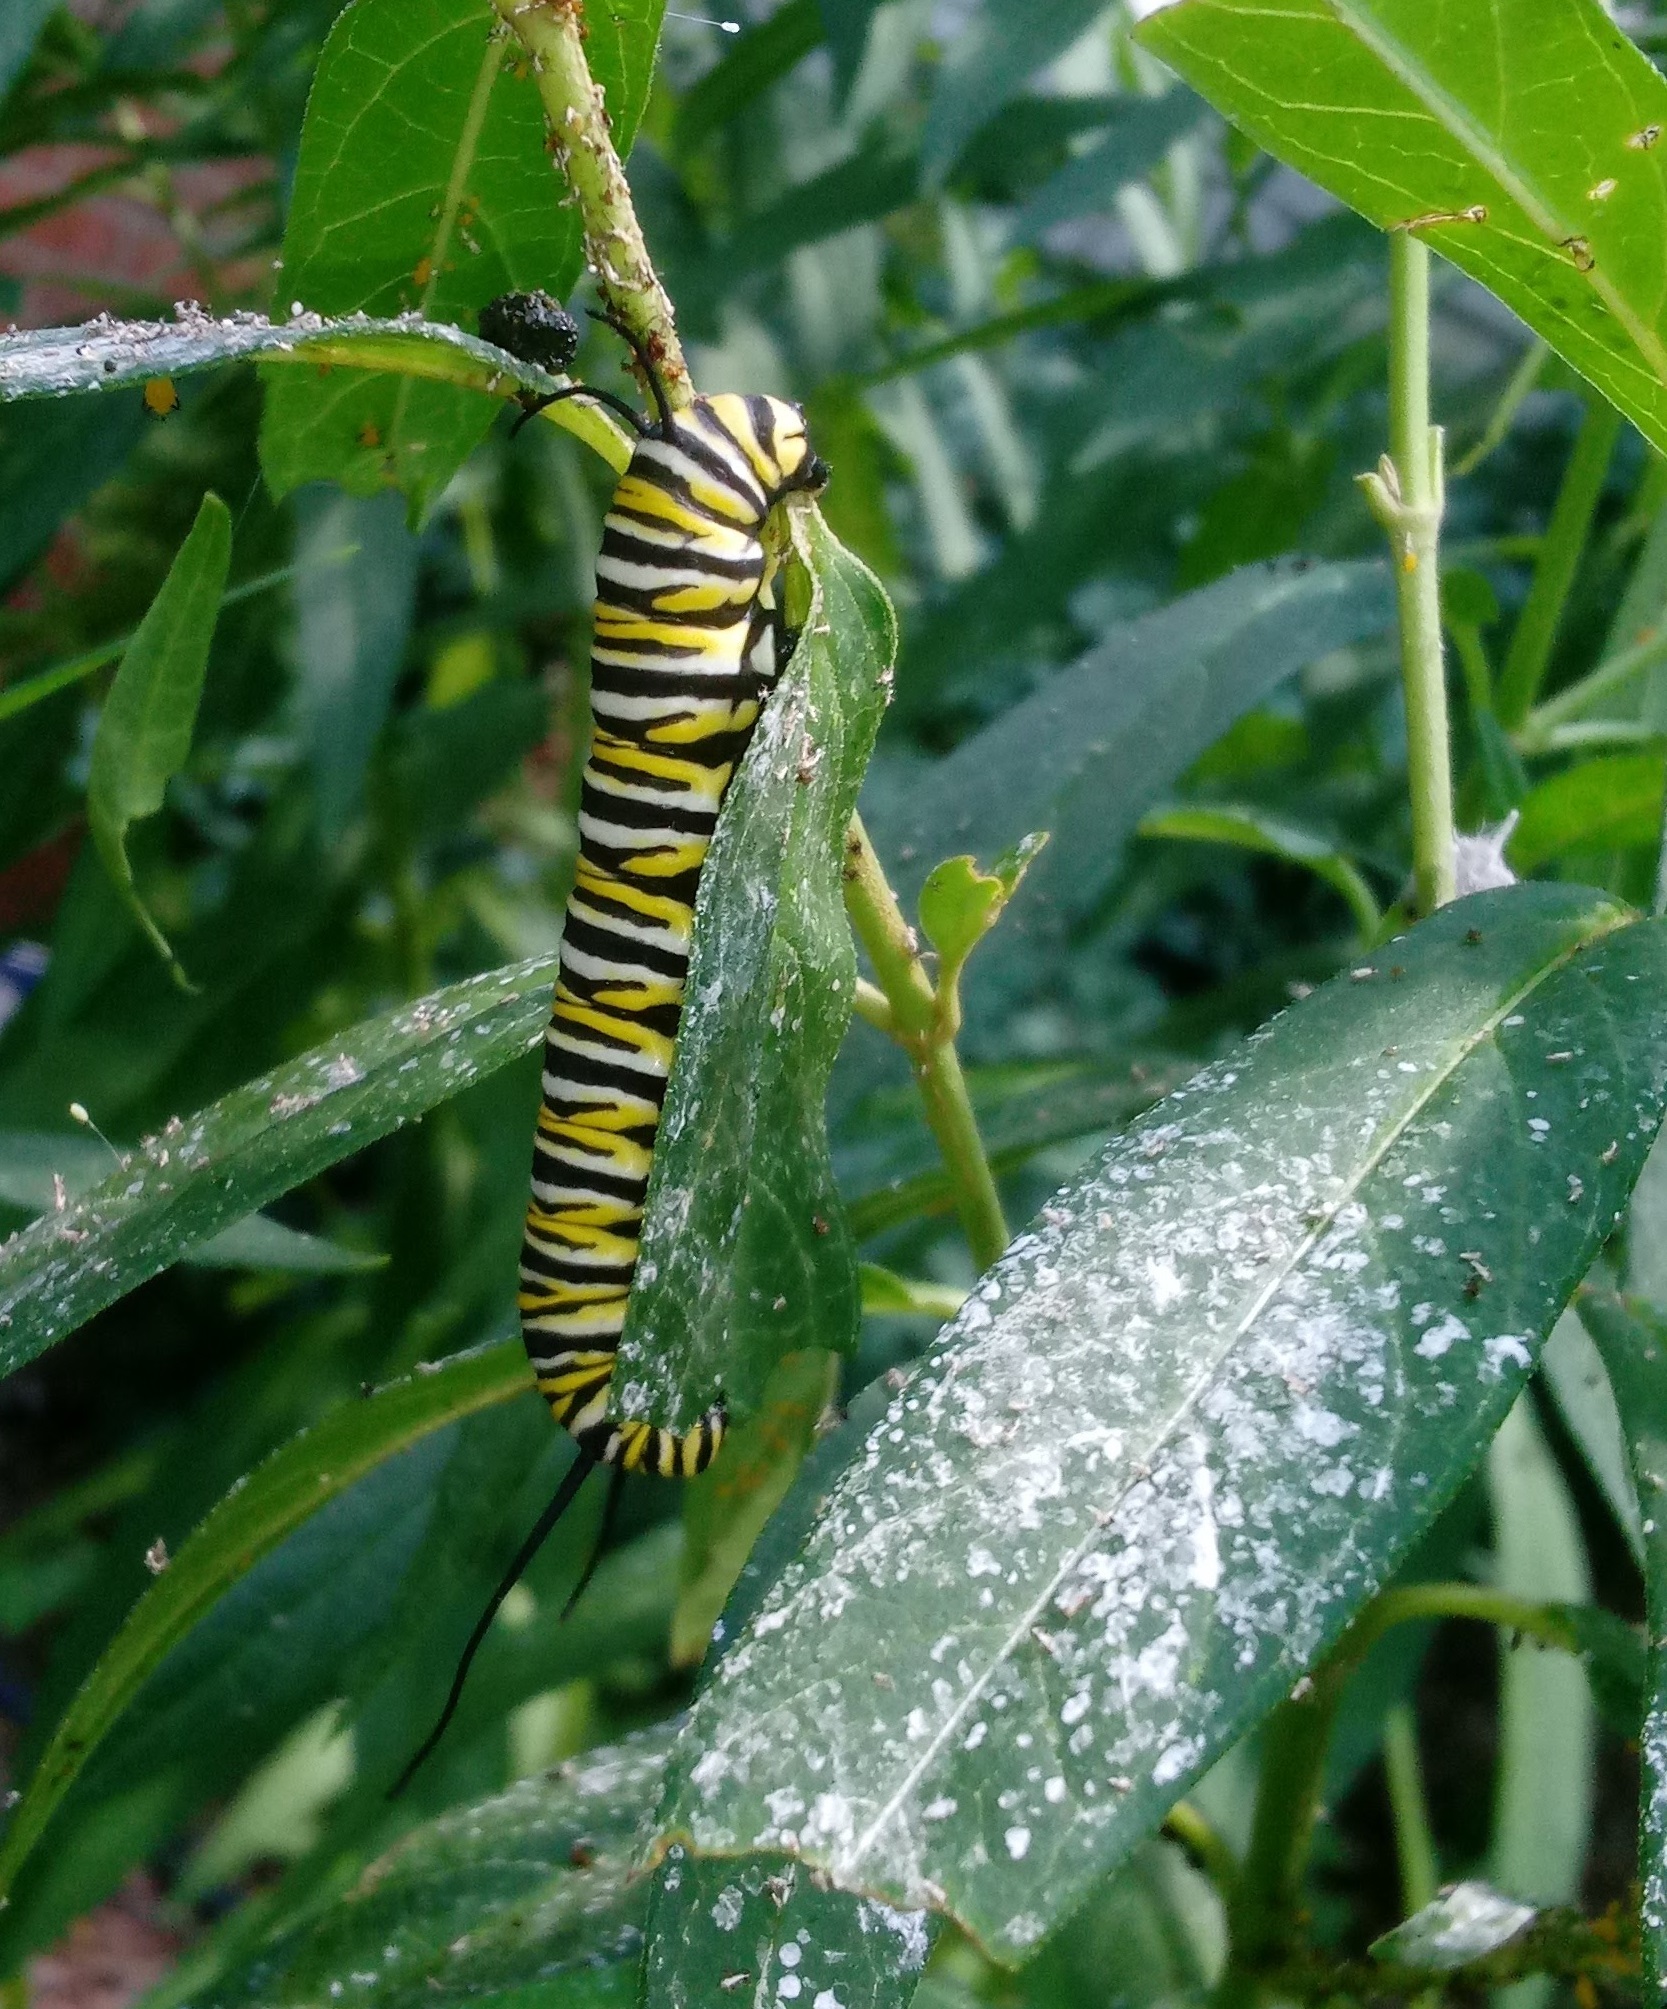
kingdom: Animalia
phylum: Arthropoda
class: Insecta
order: Lepidoptera
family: Nymphalidae
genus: Danaus
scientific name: Danaus plexippus
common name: Monarch
